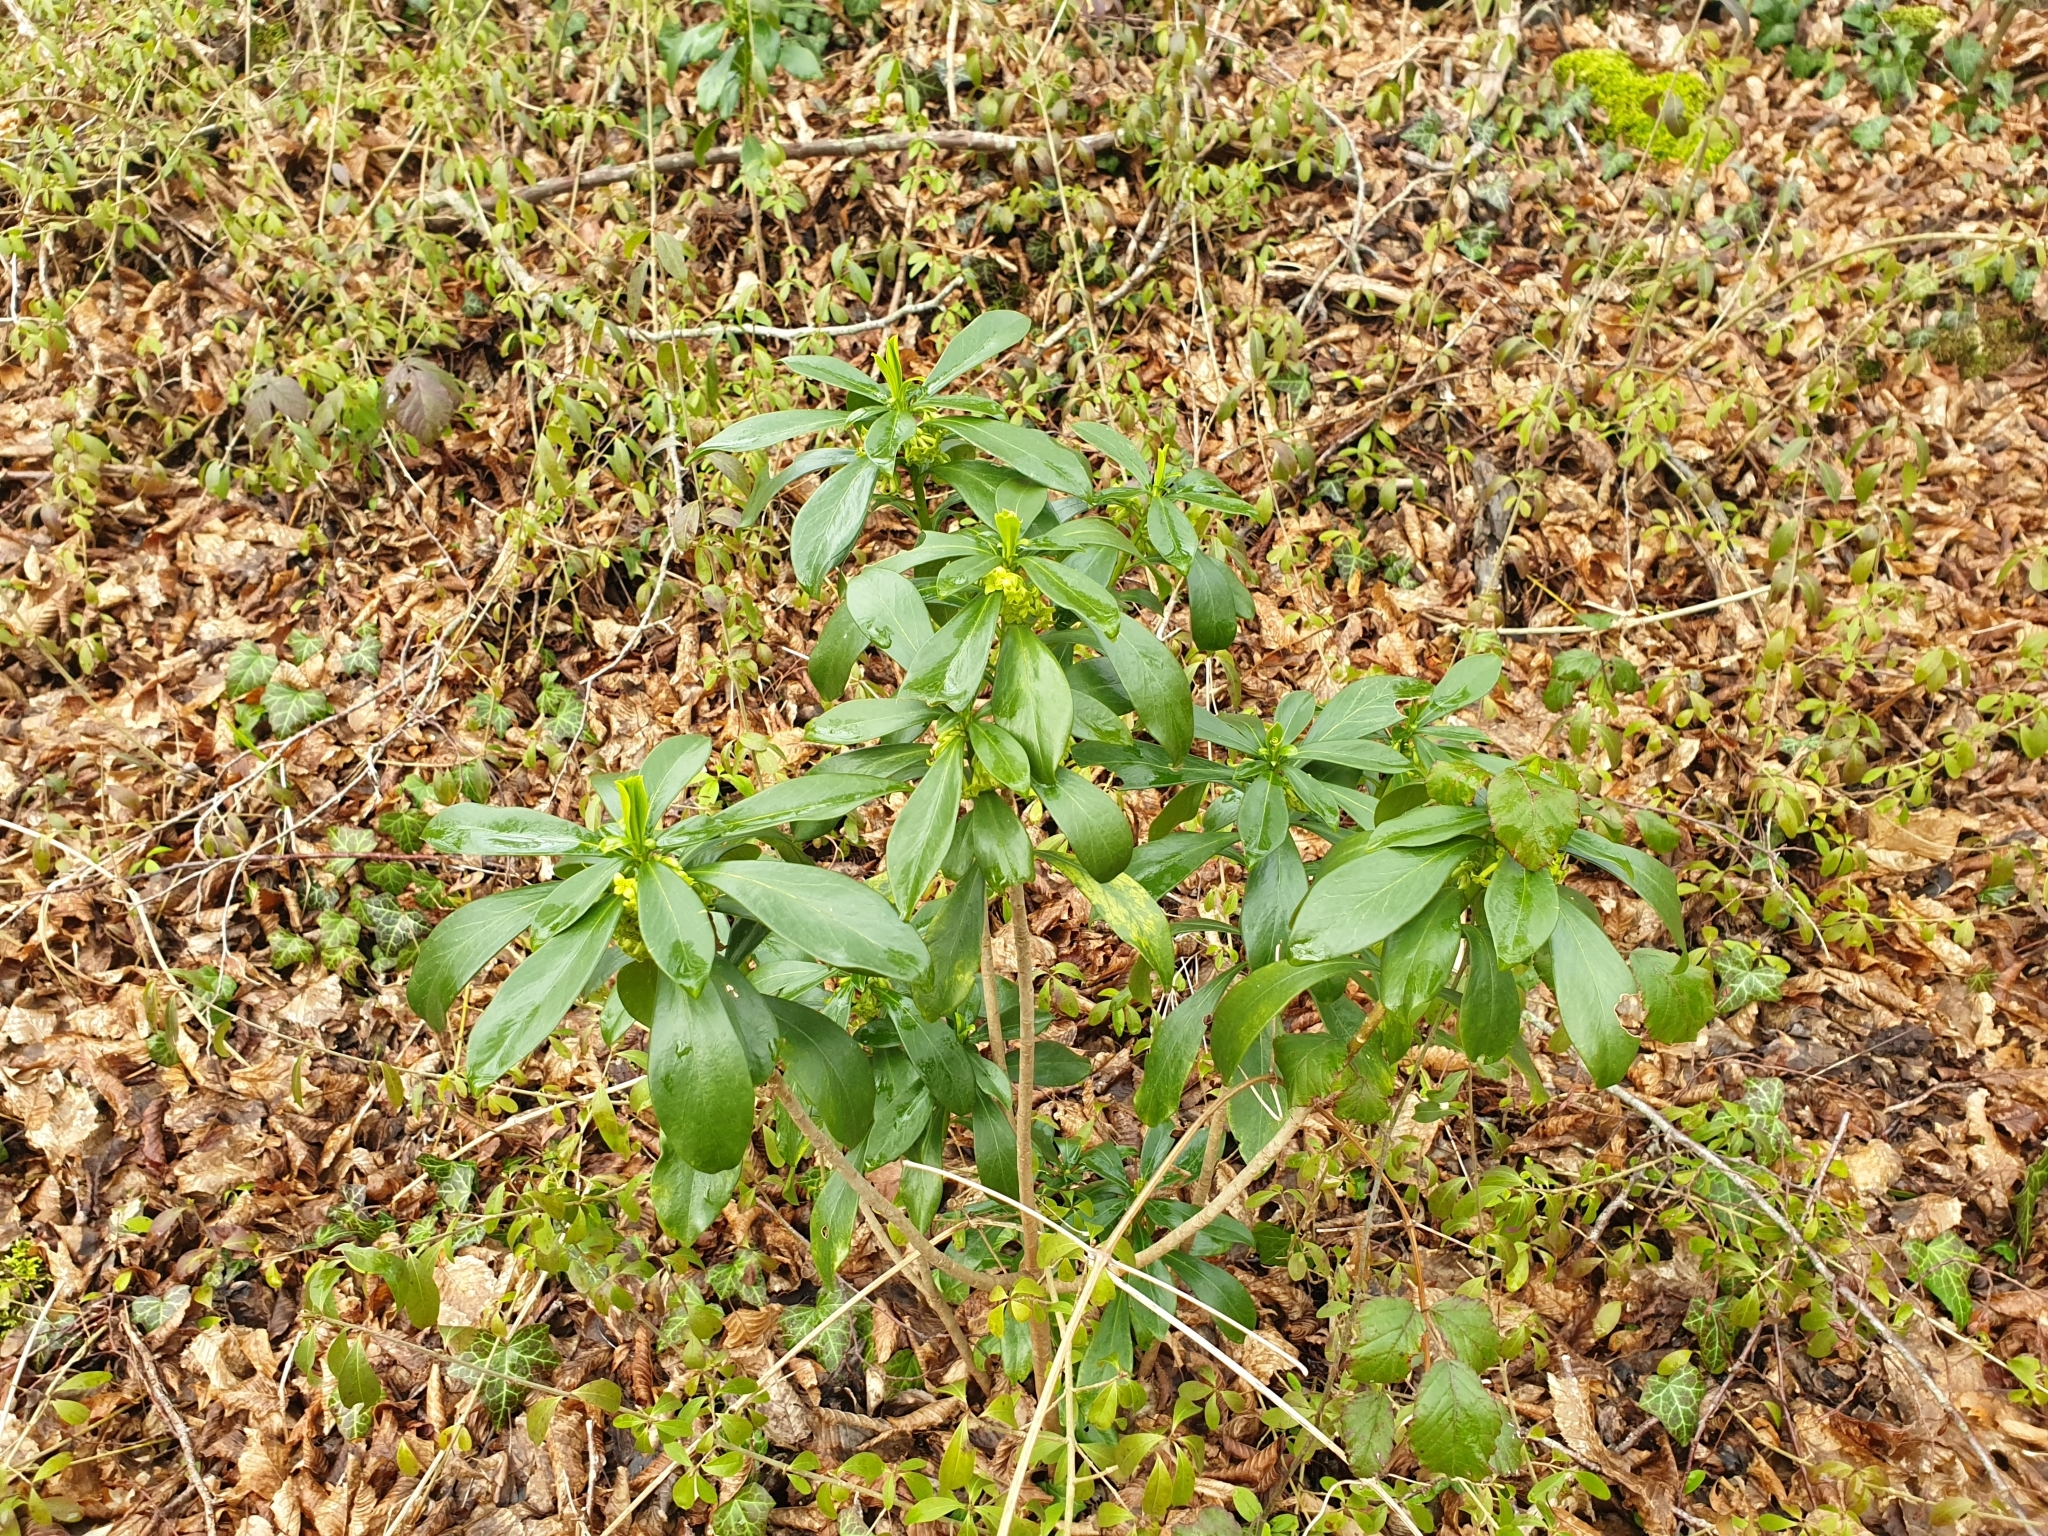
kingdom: Plantae
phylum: Tracheophyta
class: Magnoliopsida
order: Malvales
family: Thymelaeaceae
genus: Daphne
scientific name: Daphne laureola
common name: Spurge-laurel
